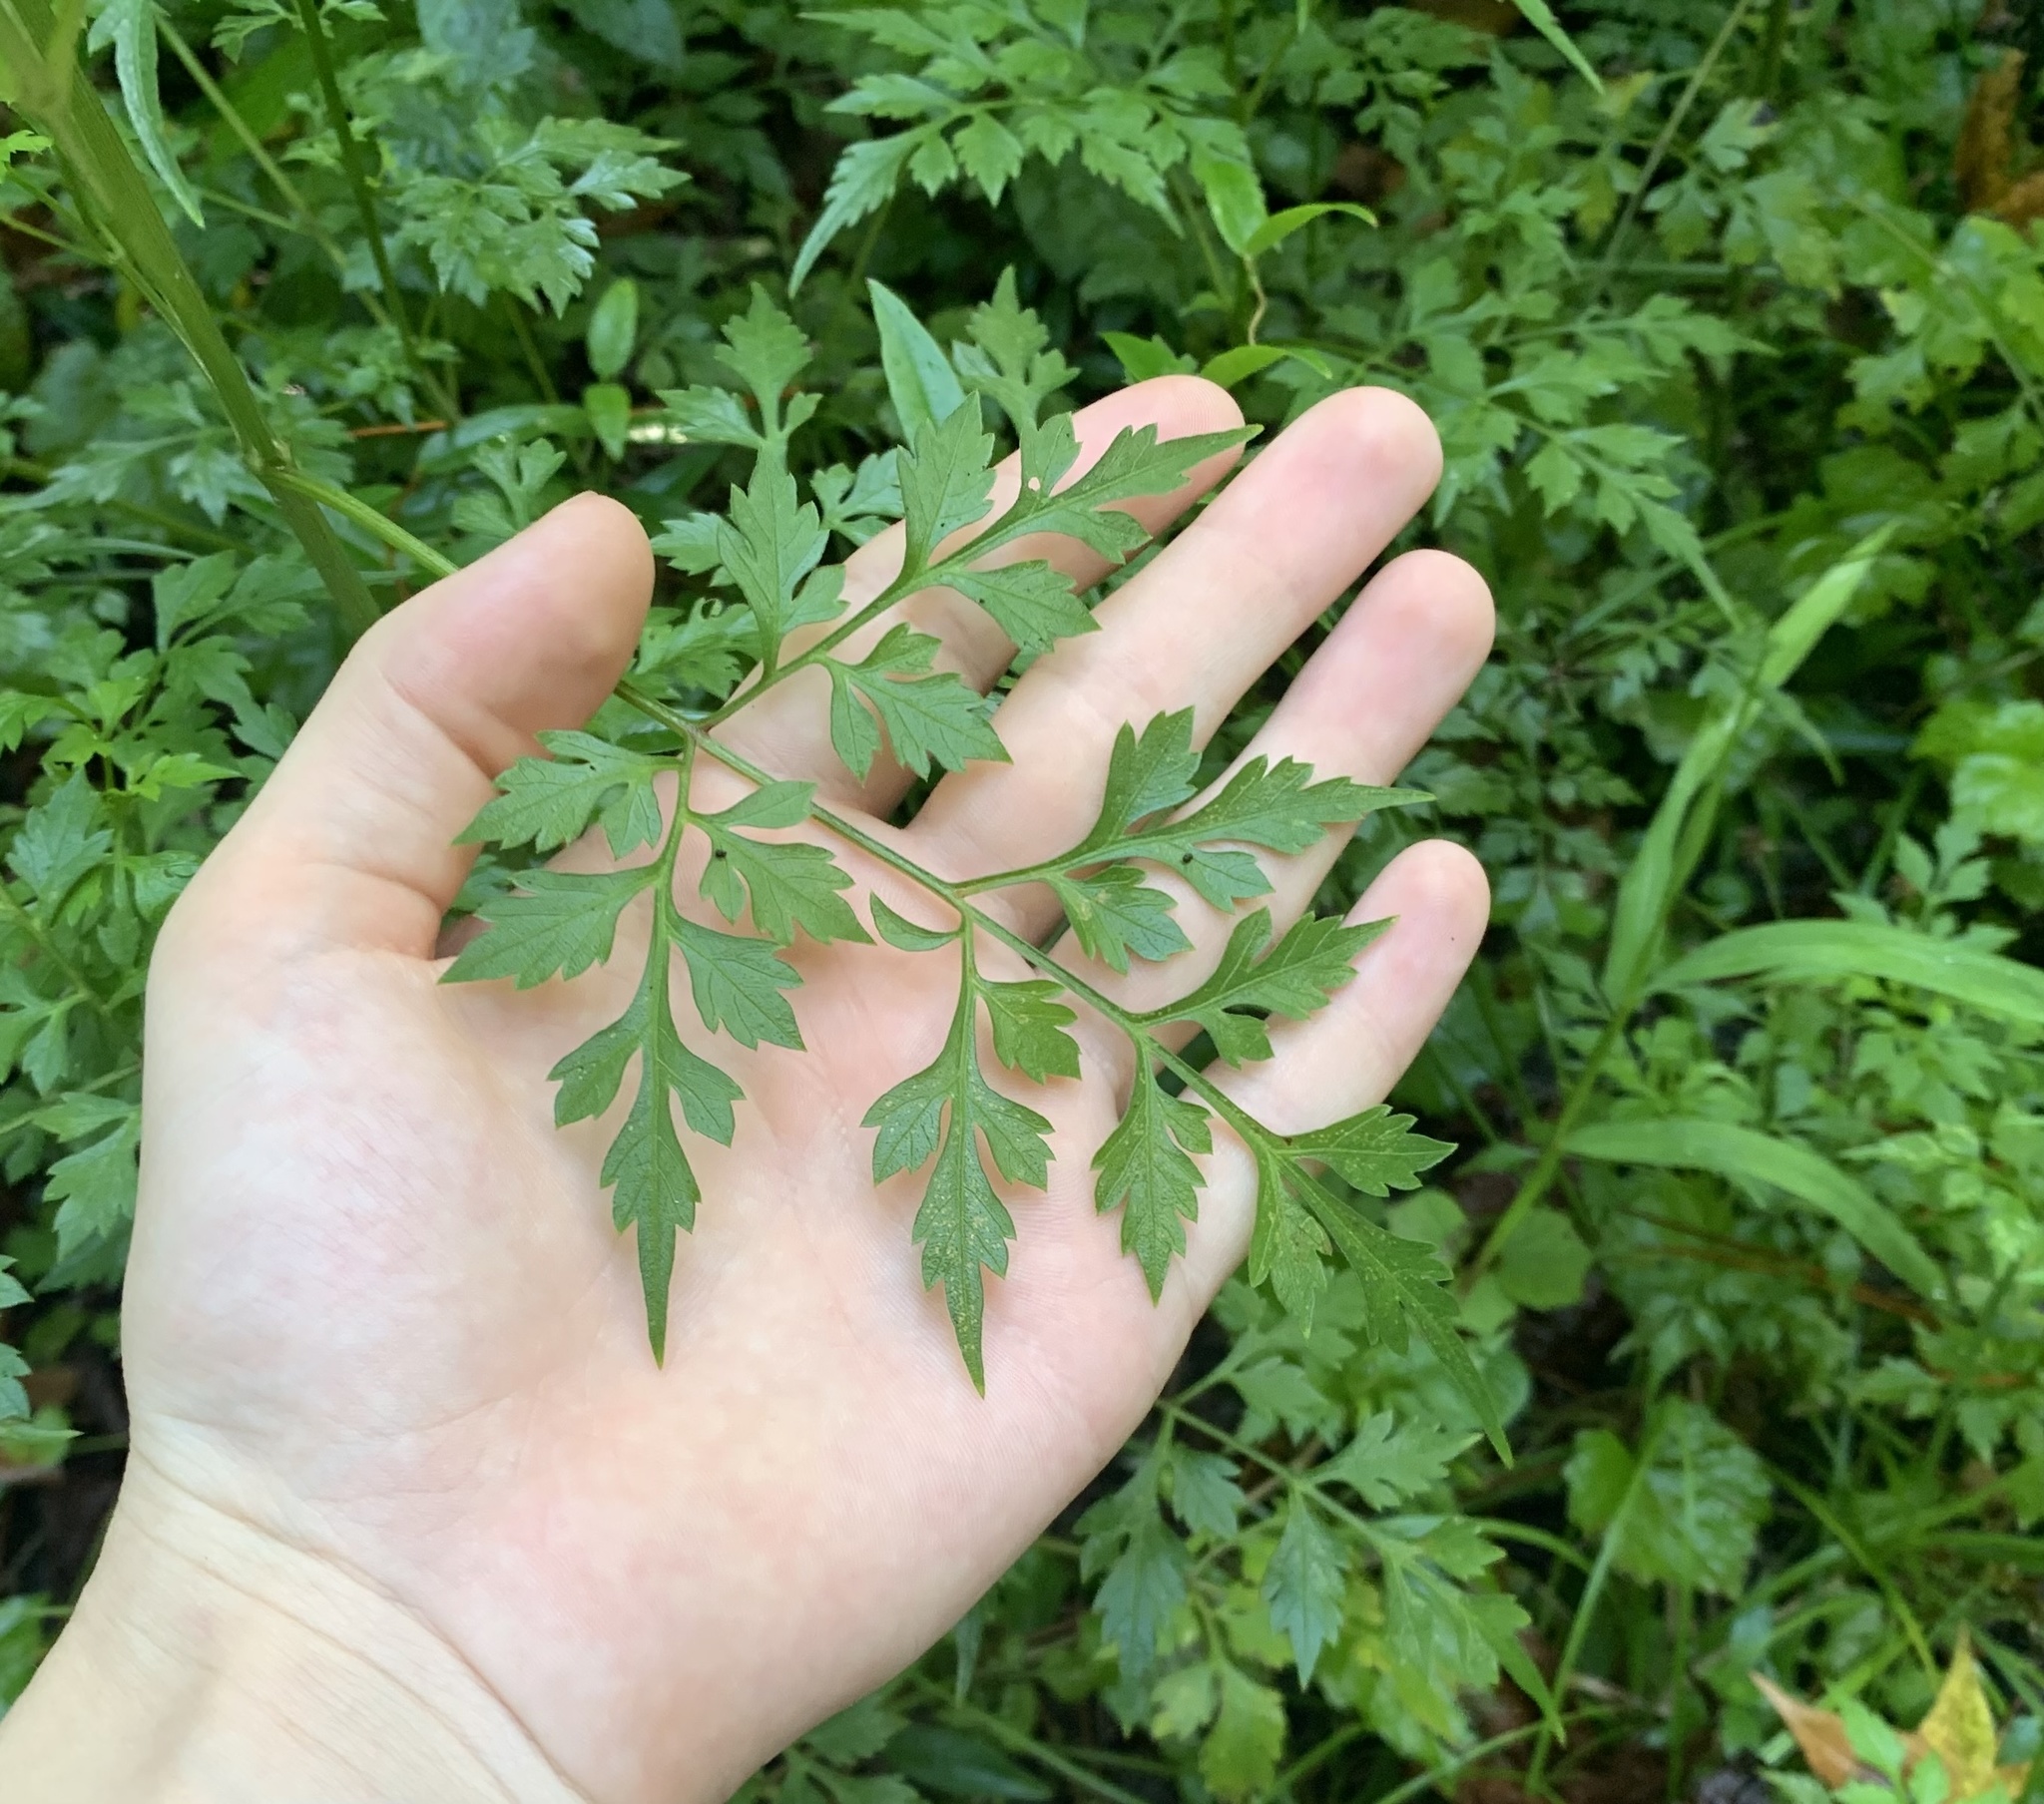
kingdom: Plantae
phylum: Tracheophyta
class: Magnoliopsida
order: Asterales
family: Asteraceae
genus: Bidens
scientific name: Bidens bipinnata
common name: Spanish-needles
